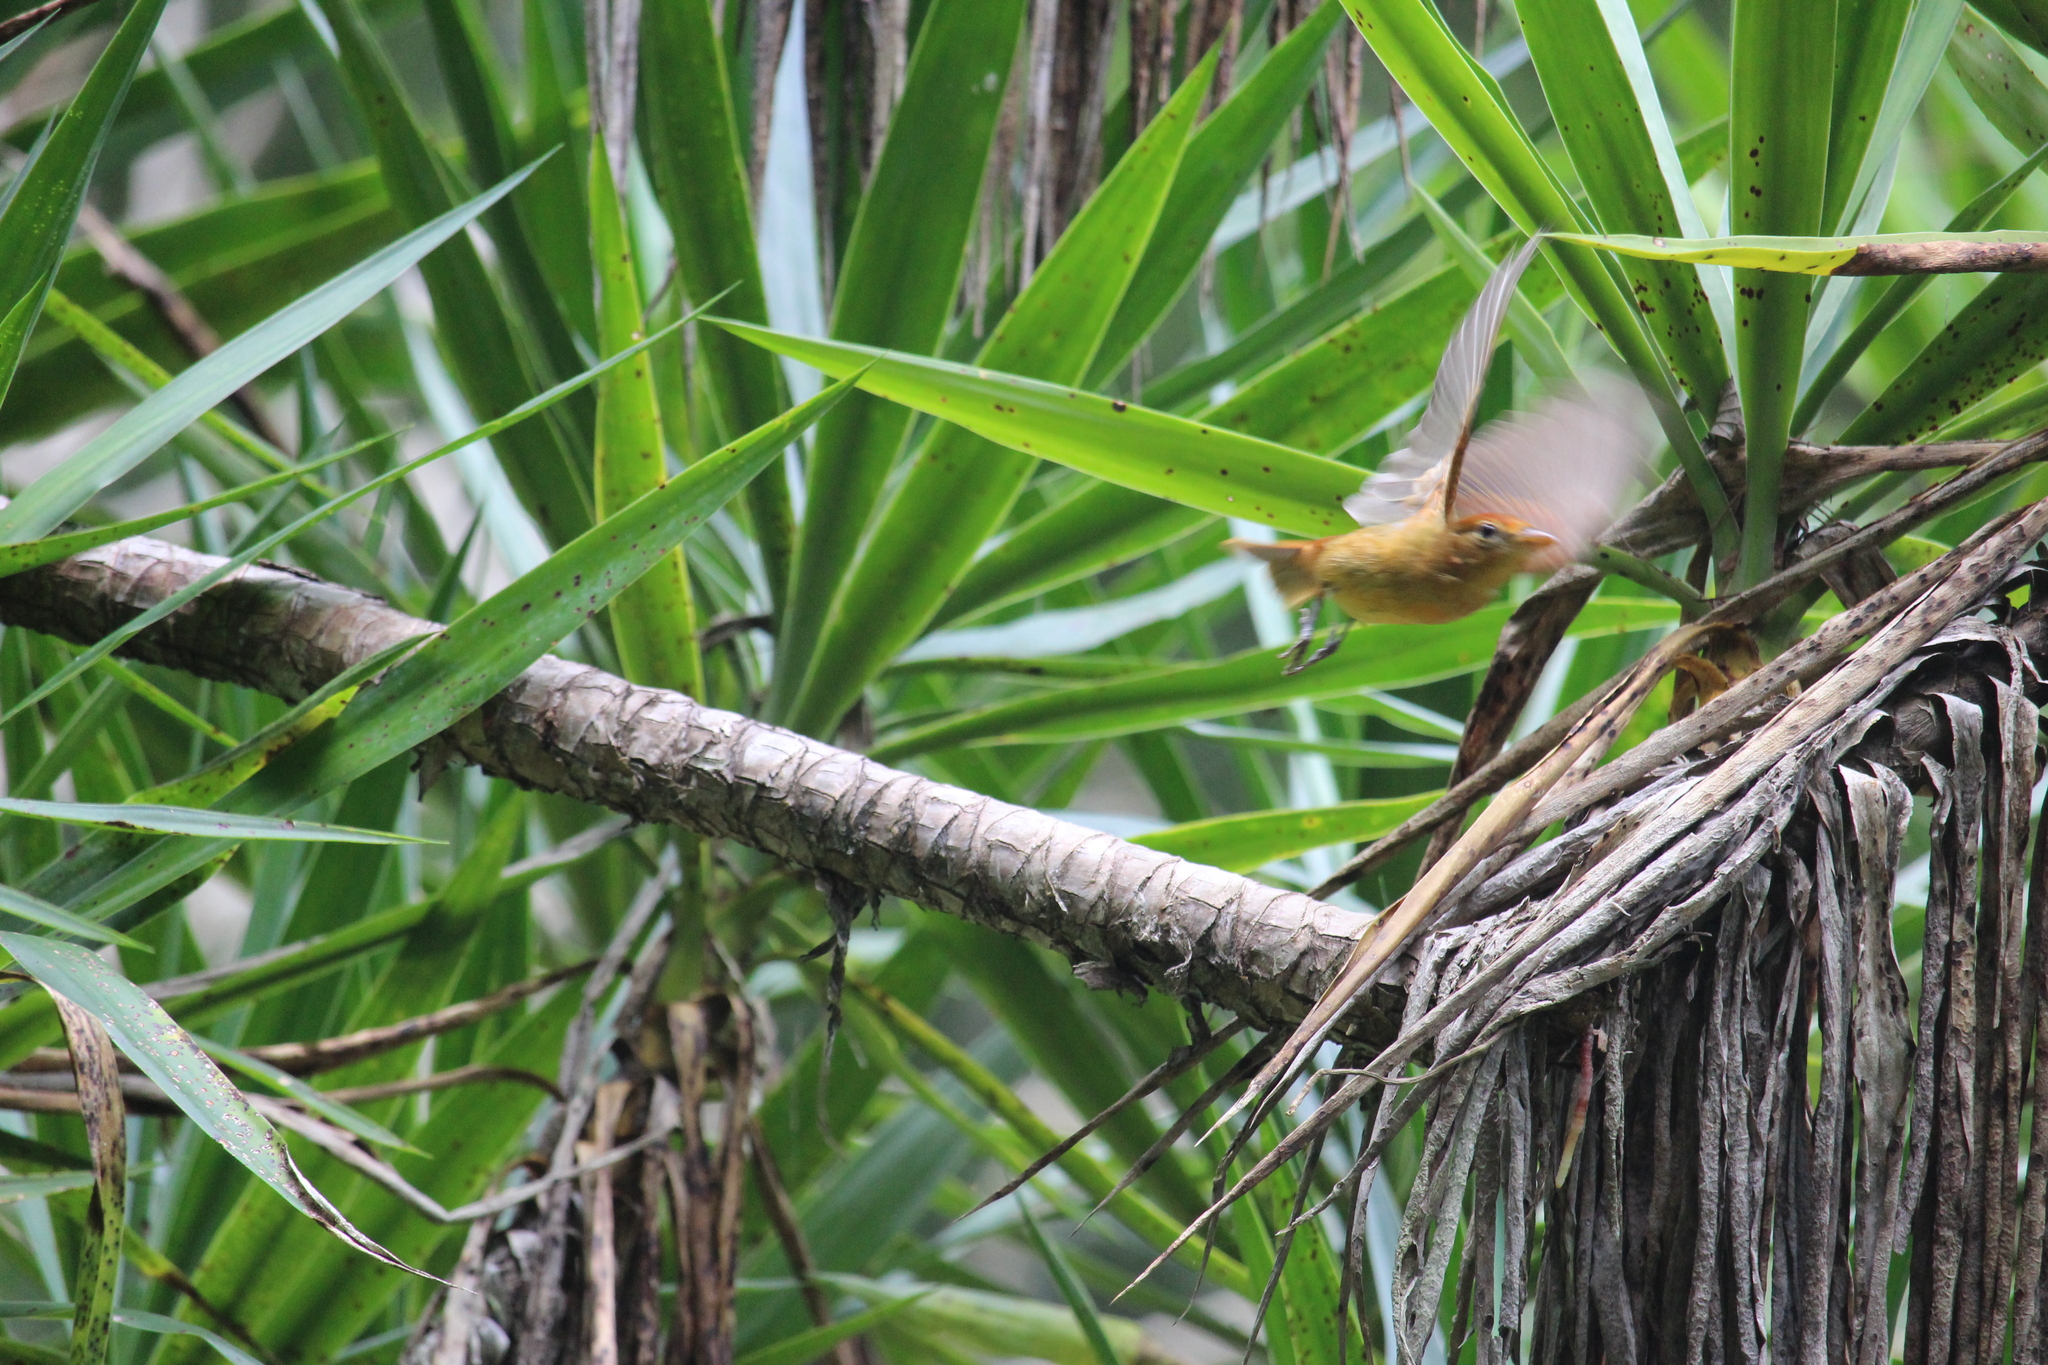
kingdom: Animalia
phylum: Chordata
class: Aves
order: Passeriformes
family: Cardinalidae
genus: Piranga
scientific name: Piranga rubra
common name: Summer tanager
